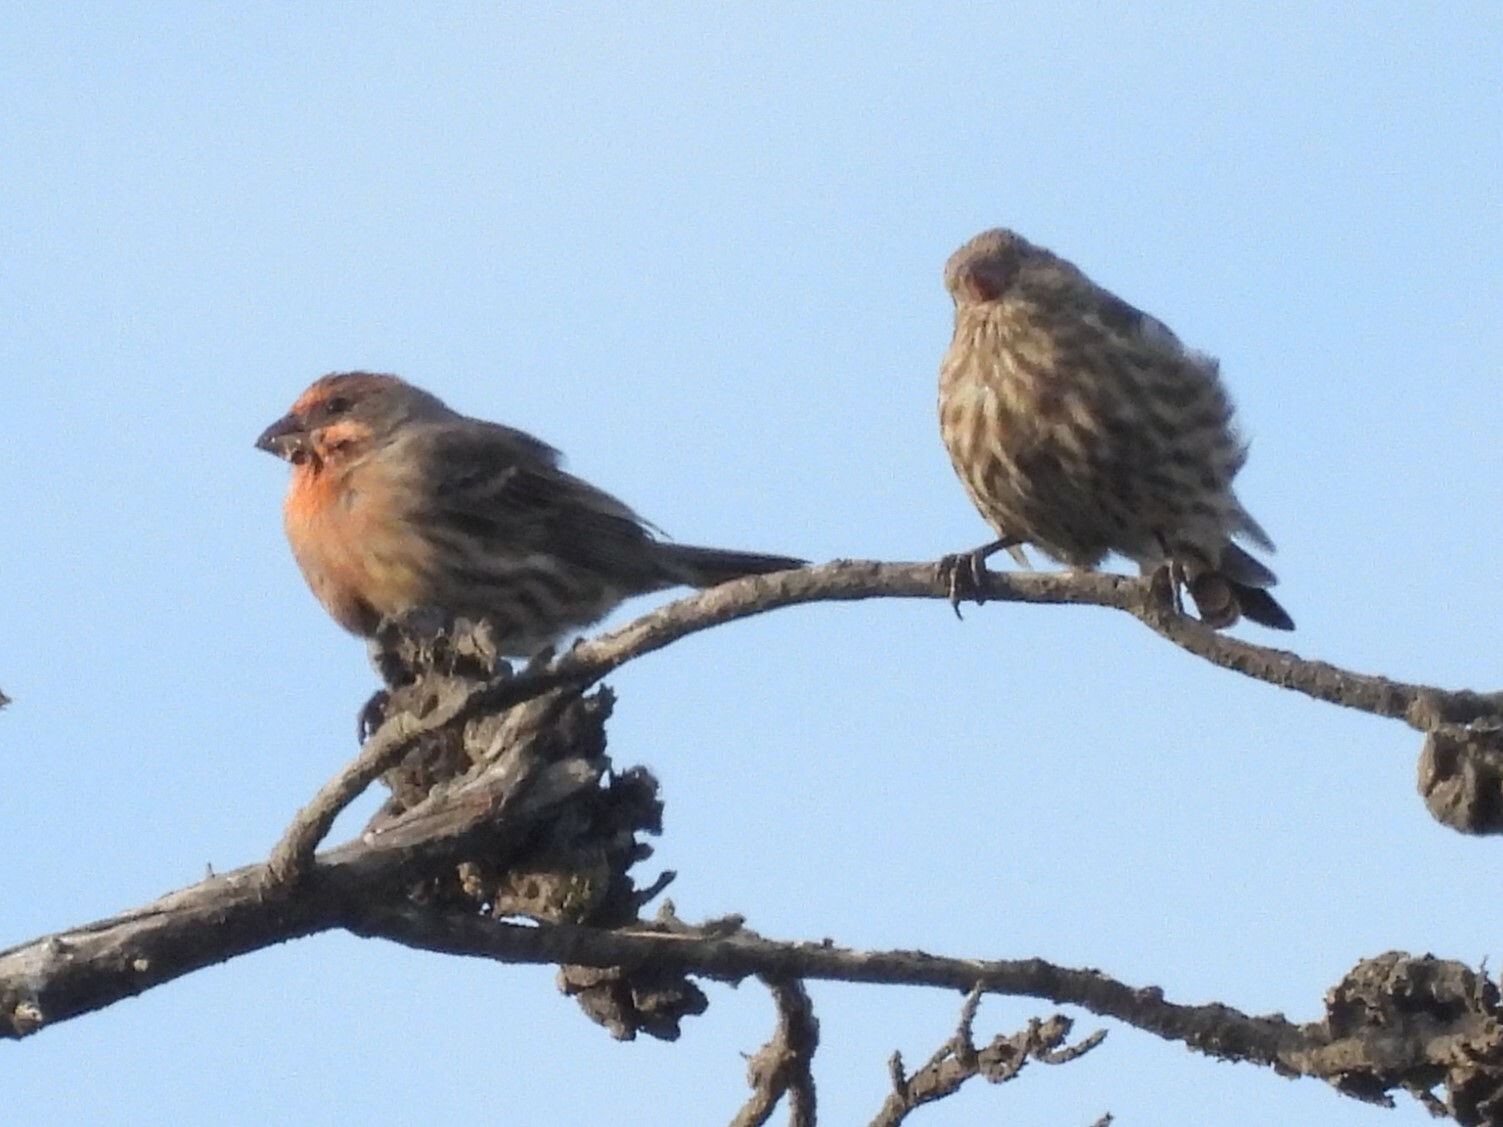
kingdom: Animalia
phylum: Chordata
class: Aves
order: Passeriformes
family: Fringillidae
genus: Haemorhous
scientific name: Haemorhous mexicanus
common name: House finch
